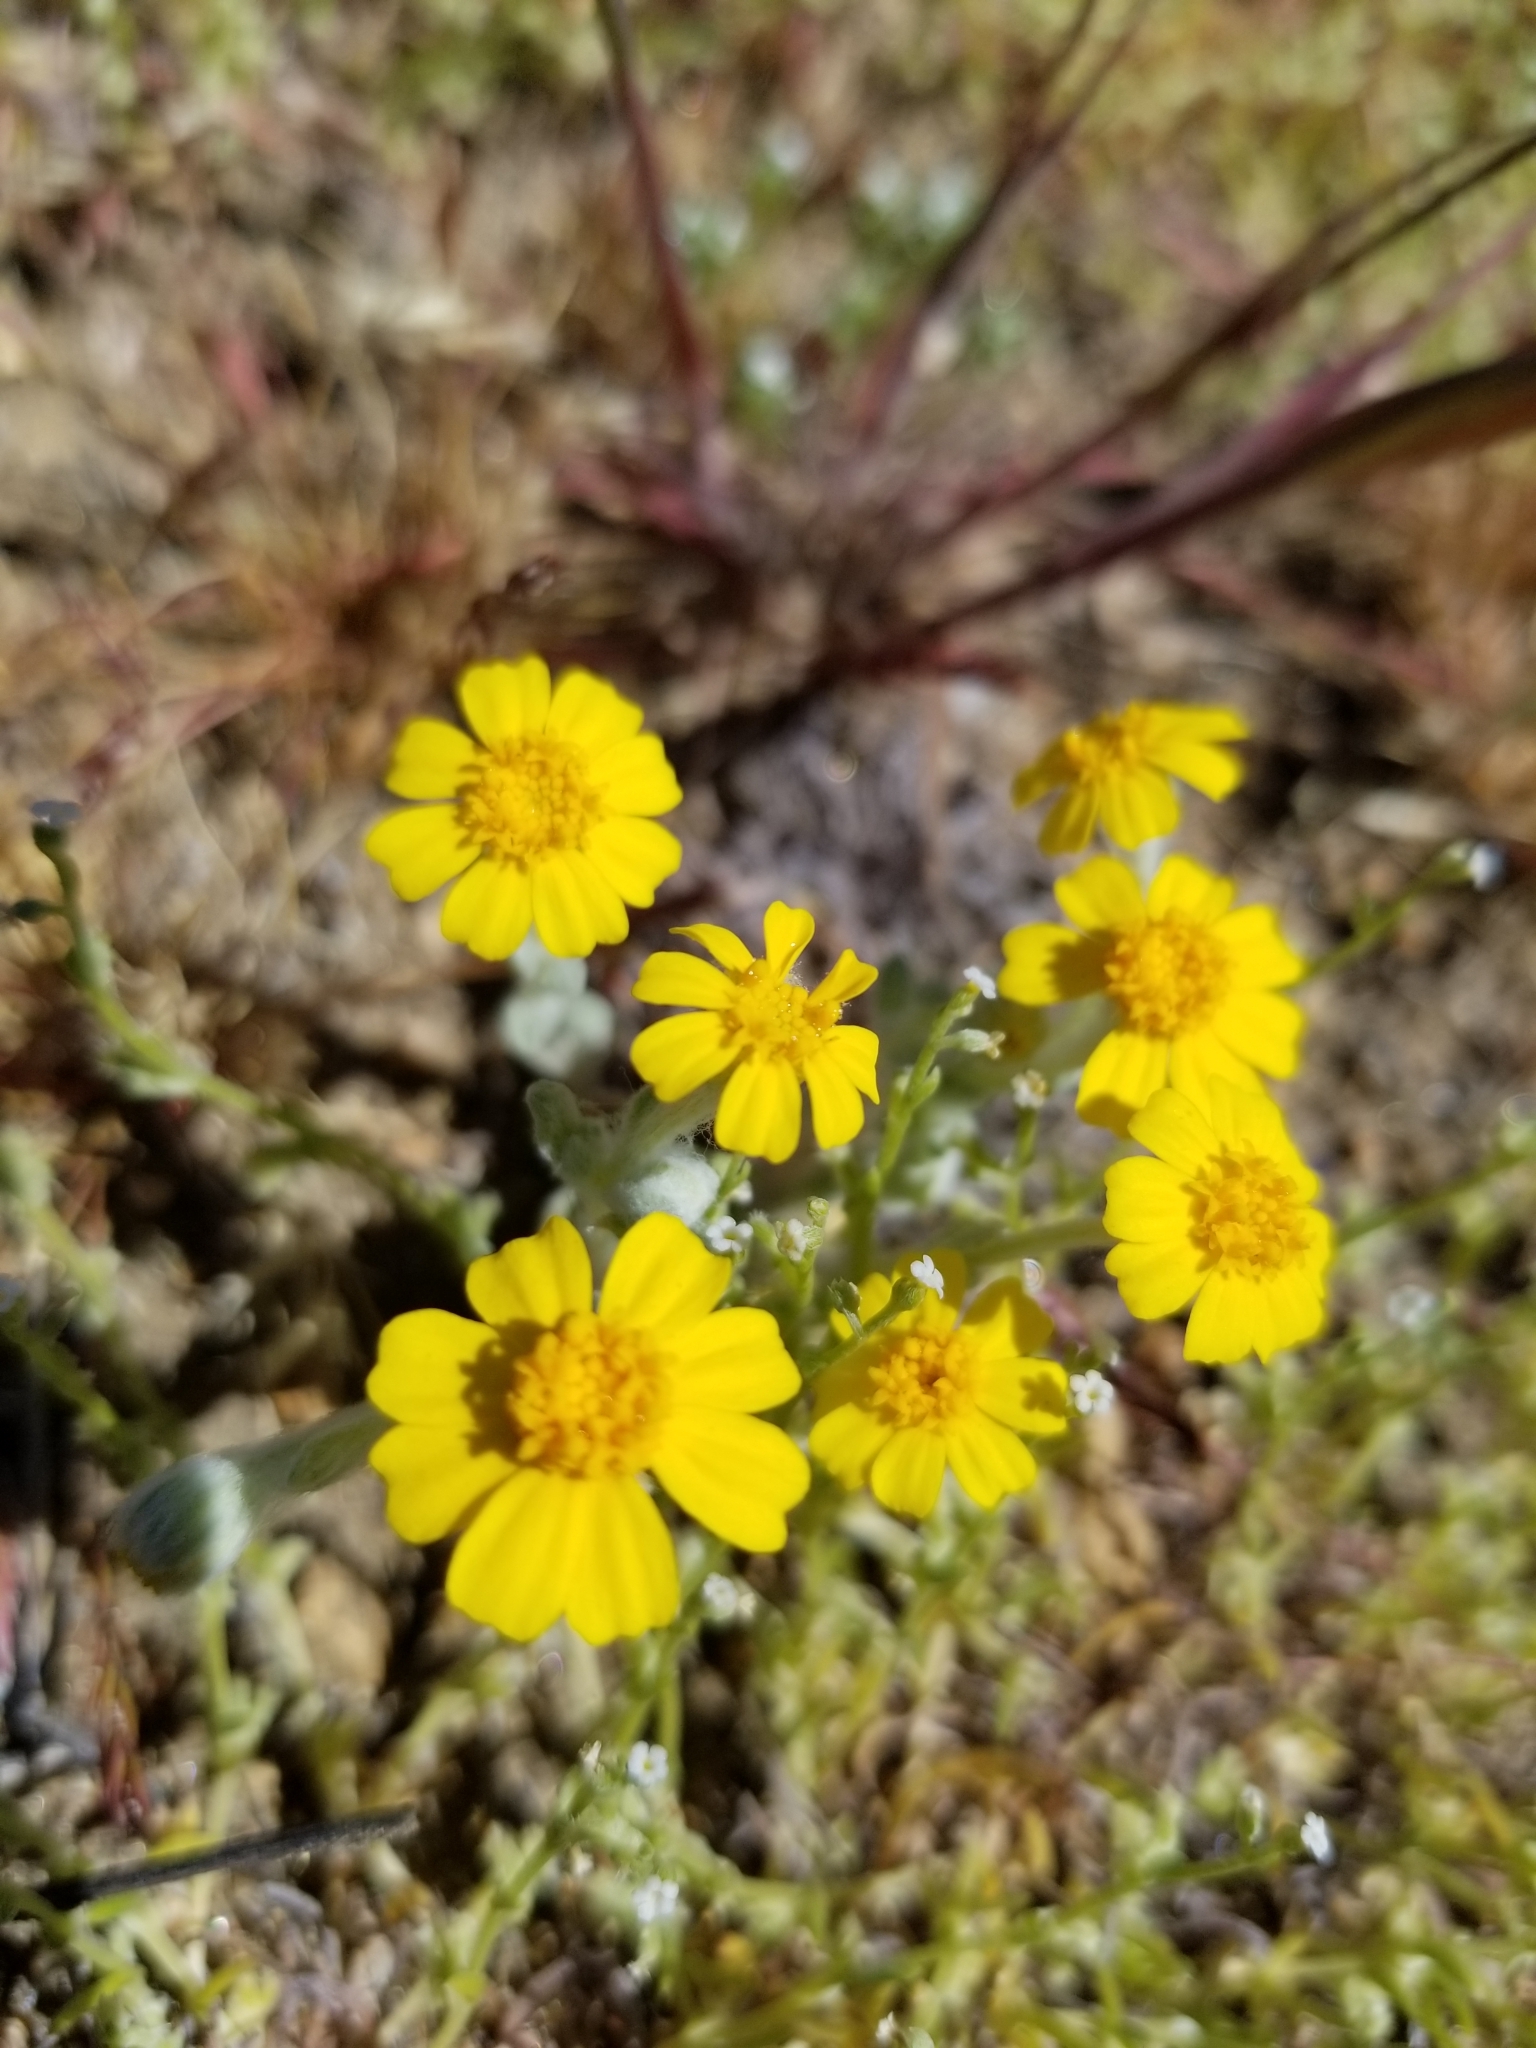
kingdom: Plantae
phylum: Tracheophyta
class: Magnoliopsida
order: Asterales
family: Asteraceae
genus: Eriophyllum
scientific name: Eriophyllum wallacei
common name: Wallace's woolly daisy
